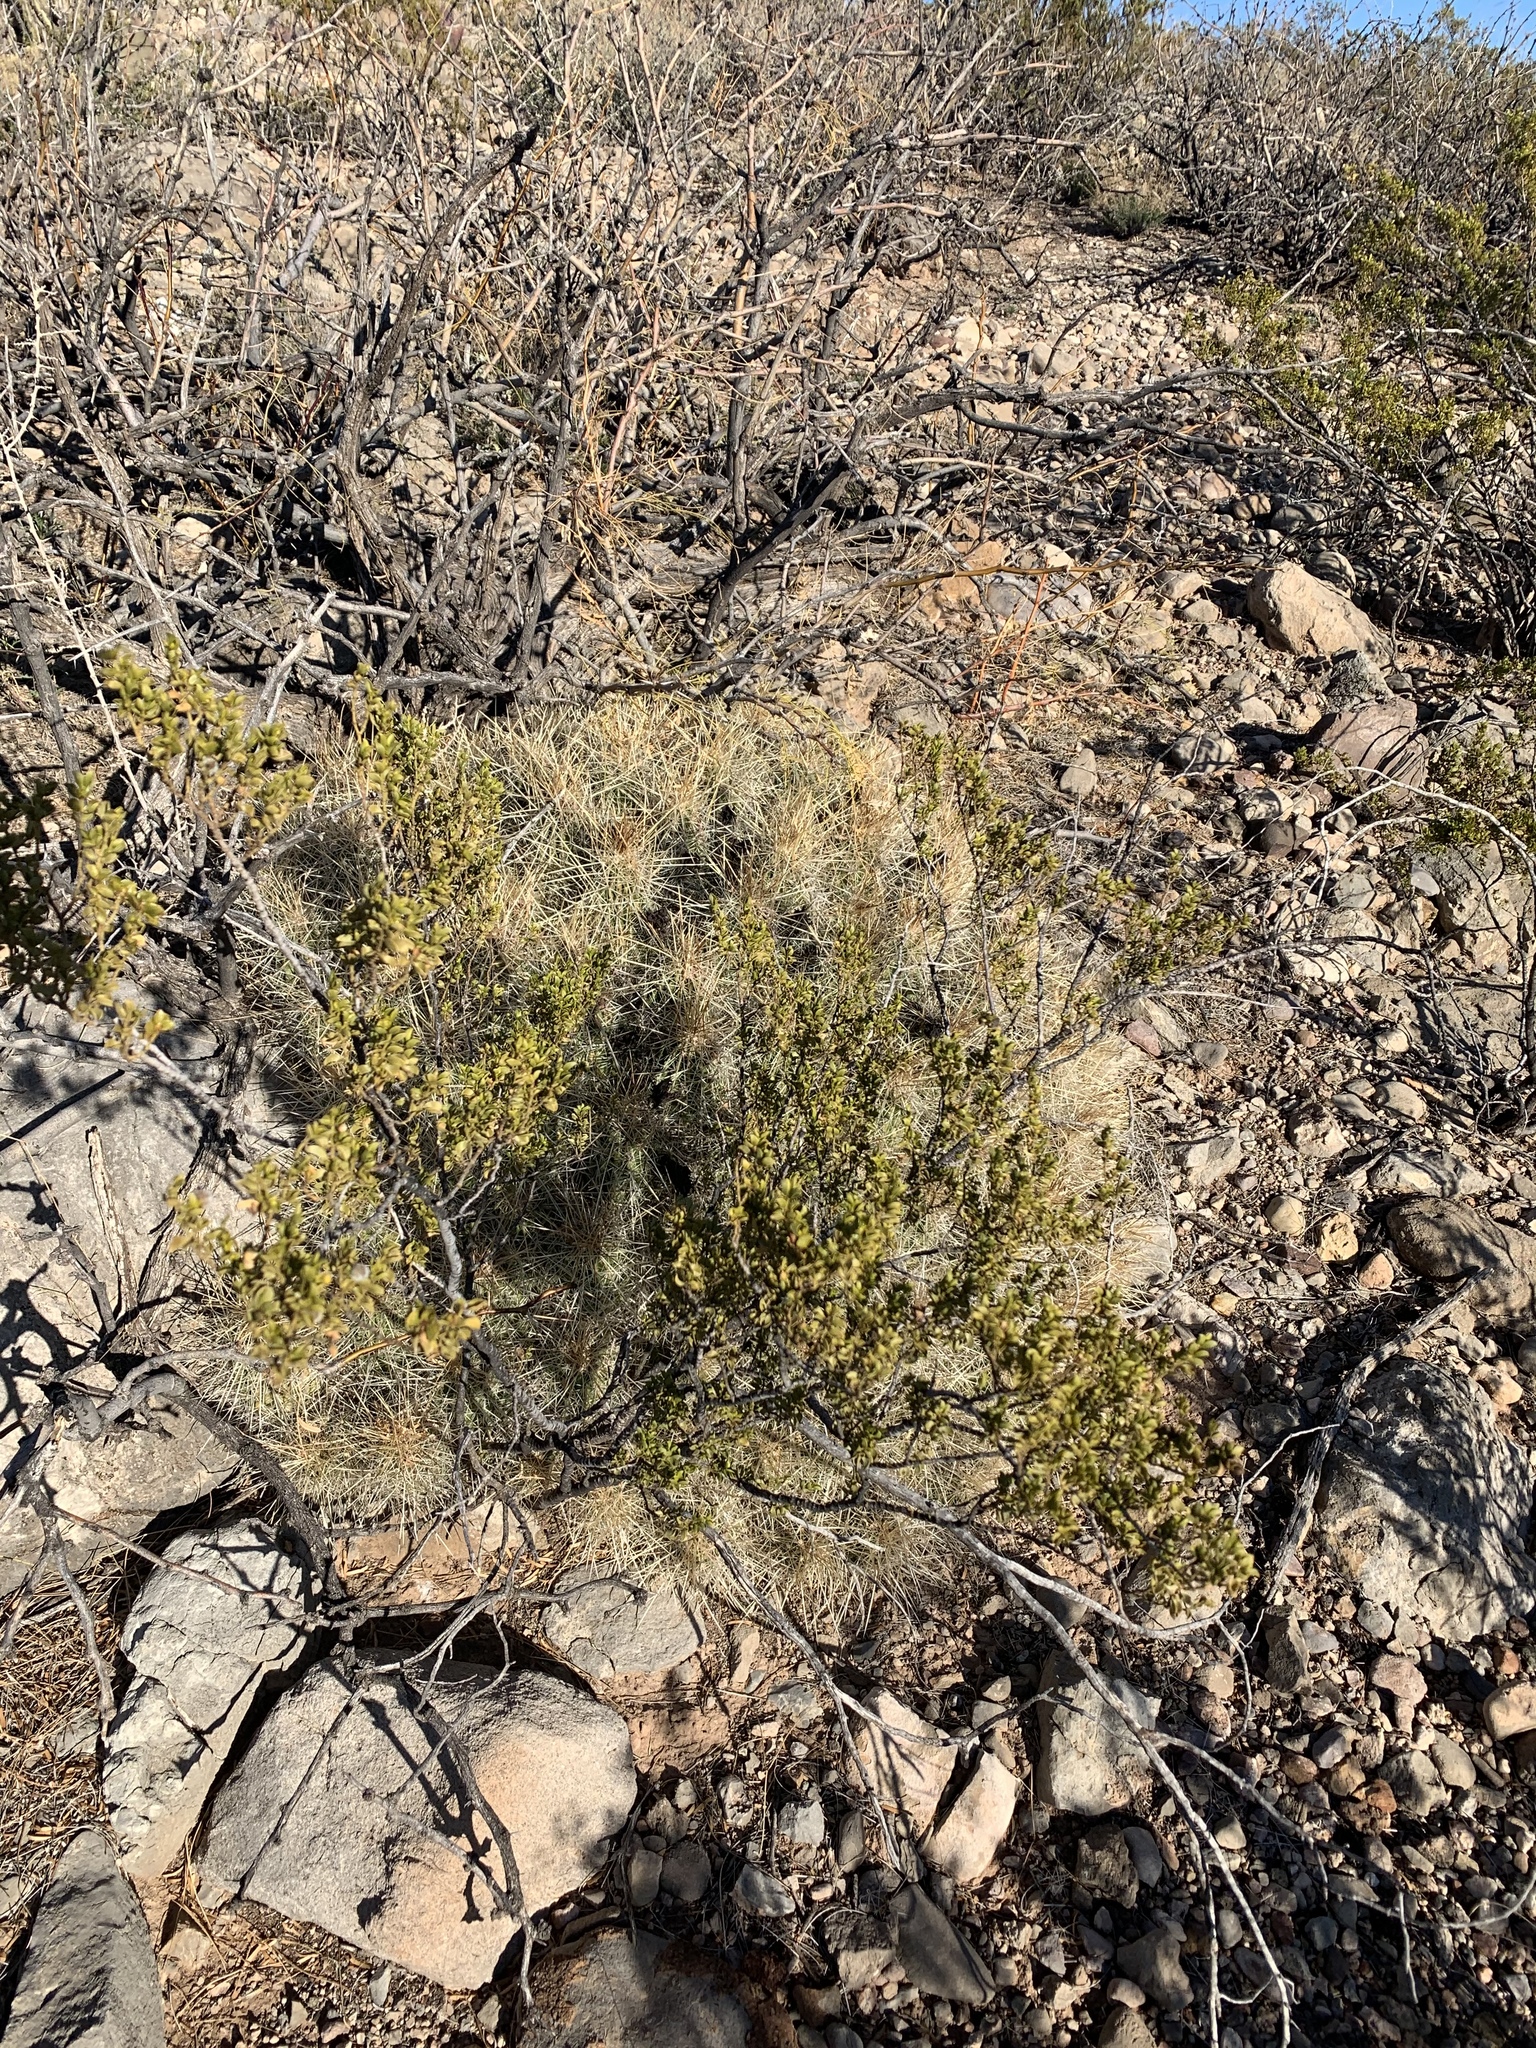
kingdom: Plantae
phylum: Tracheophyta
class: Magnoliopsida
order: Zygophyllales
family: Zygophyllaceae
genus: Larrea
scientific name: Larrea tridentata
